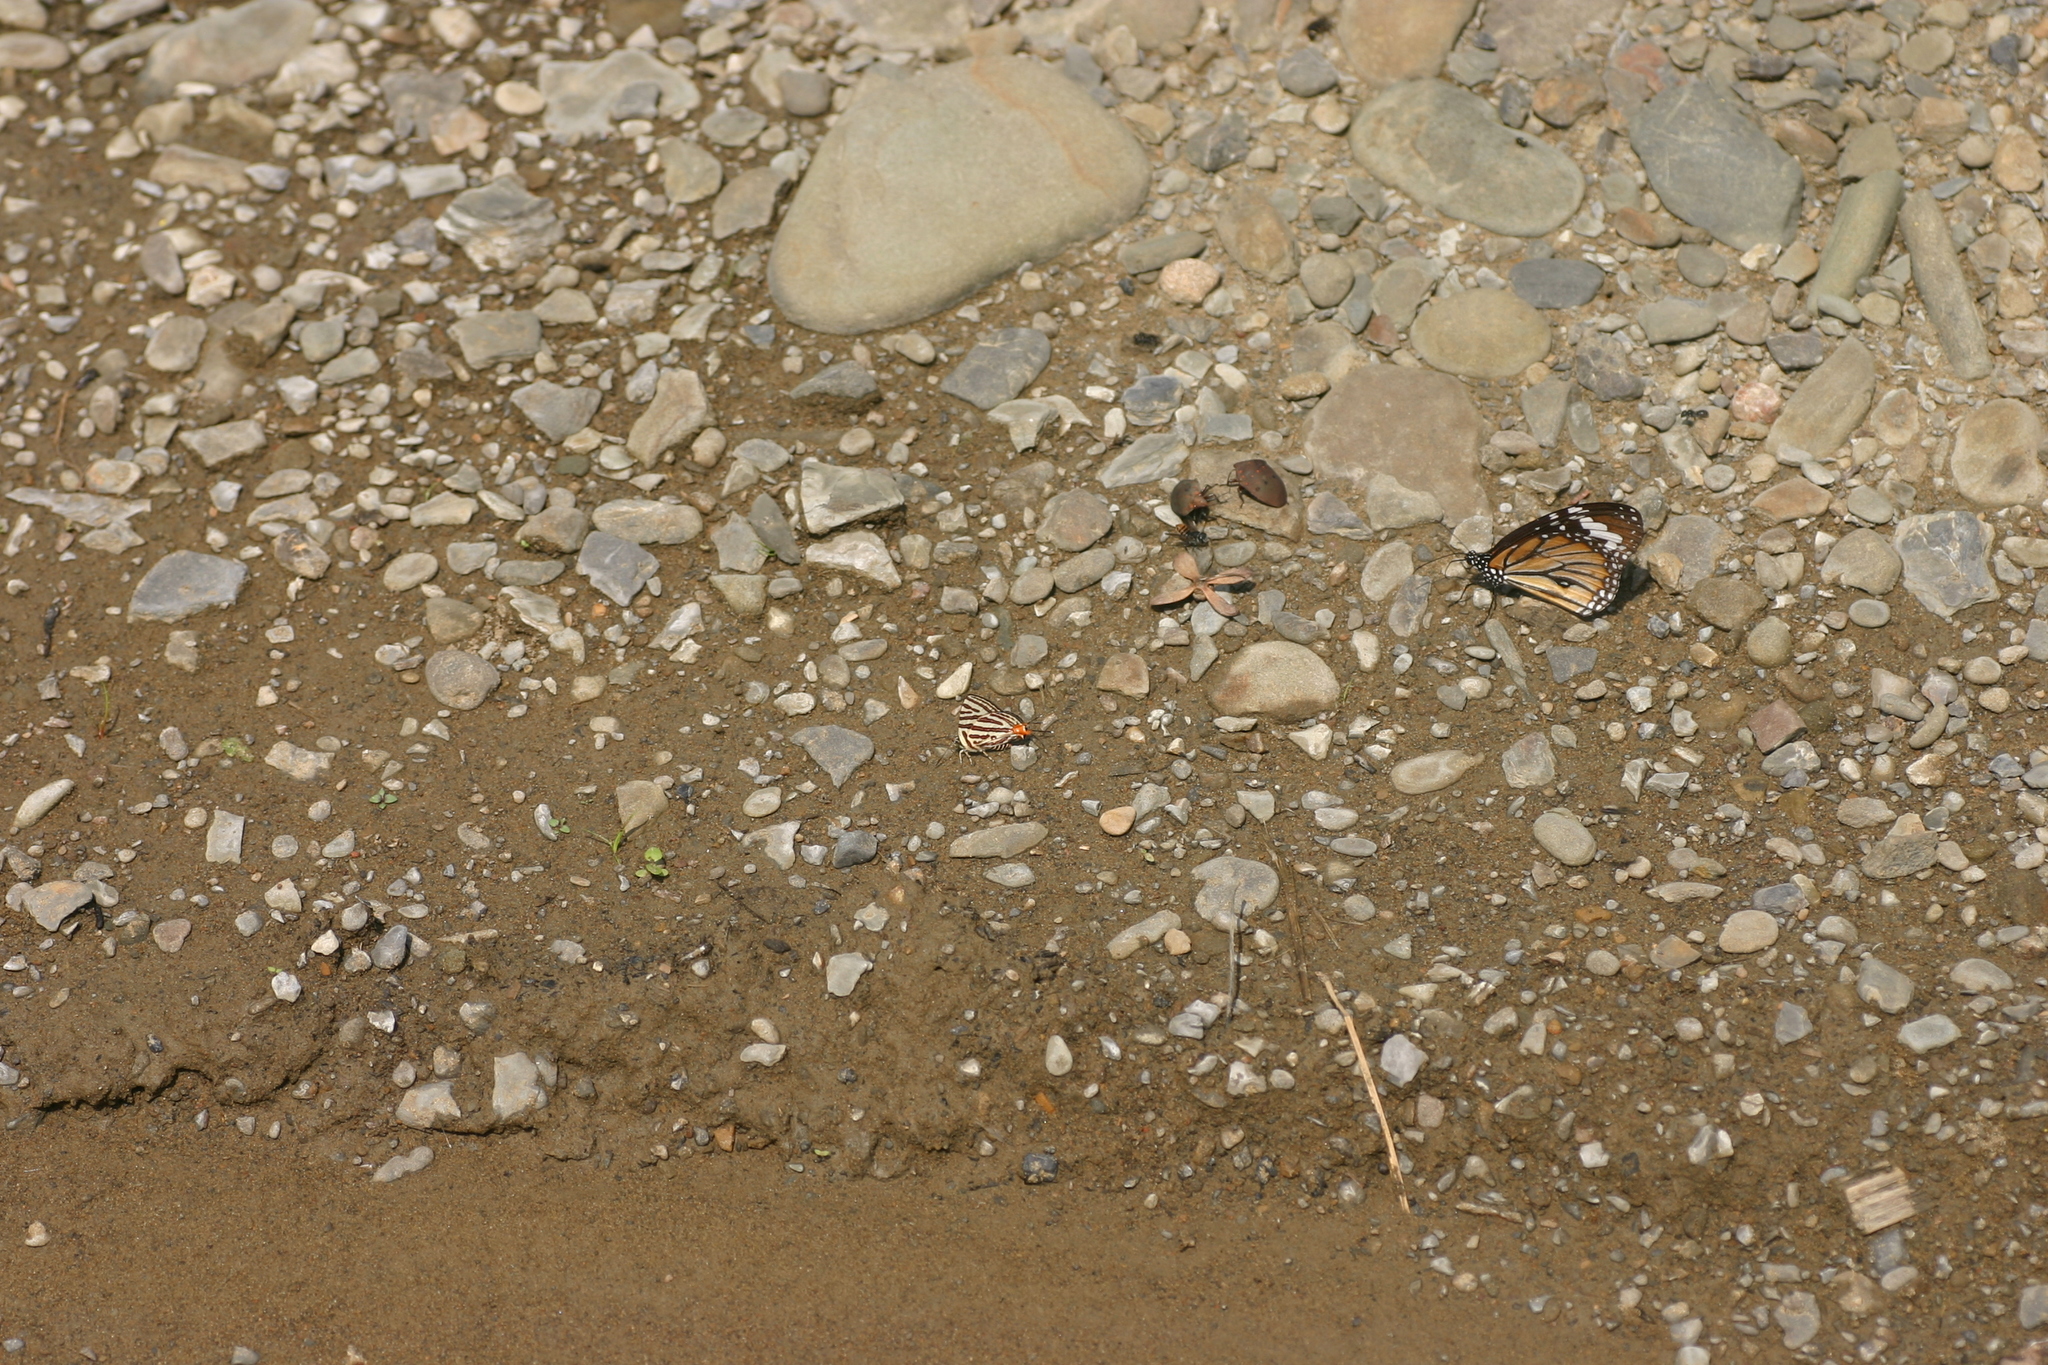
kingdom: Animalia
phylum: Arthropoda
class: Insecta
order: Lepidoptera
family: Nymphalidae
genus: Danaus
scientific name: Danaus genutia
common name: Common tiger butterfly
